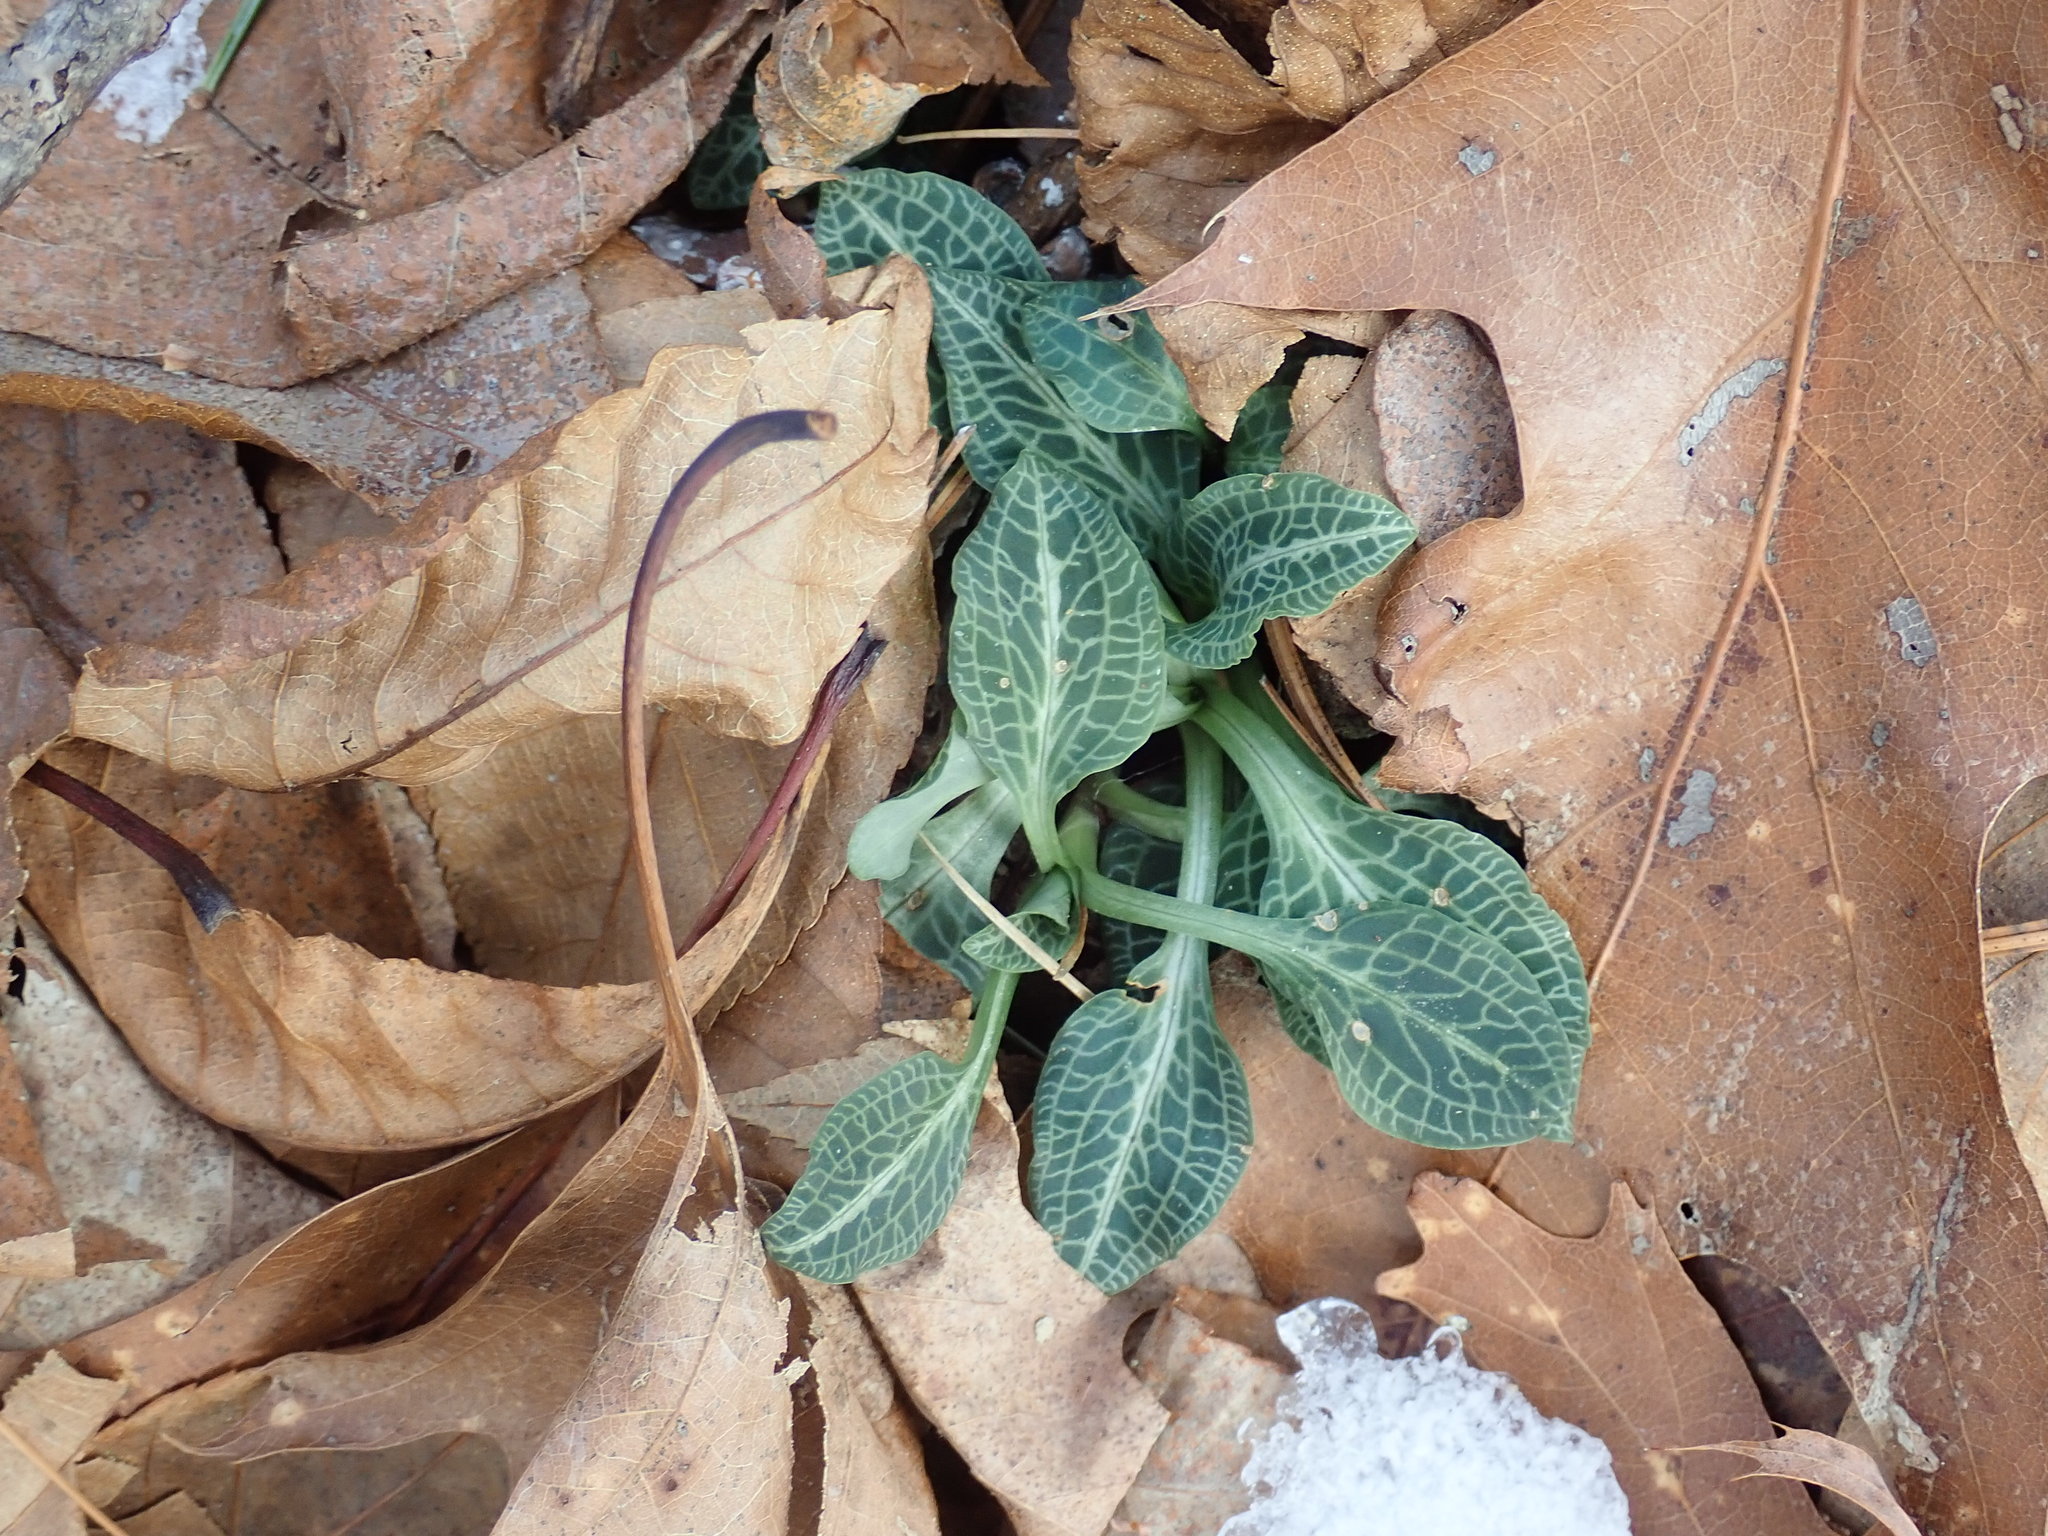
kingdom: Plantae
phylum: Tracheophyta
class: Liliopsida
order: Asparagales
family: Orchidaceae
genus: Goodyera
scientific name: Goodyera pubescens
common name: Downy rattlesnake-plantain
